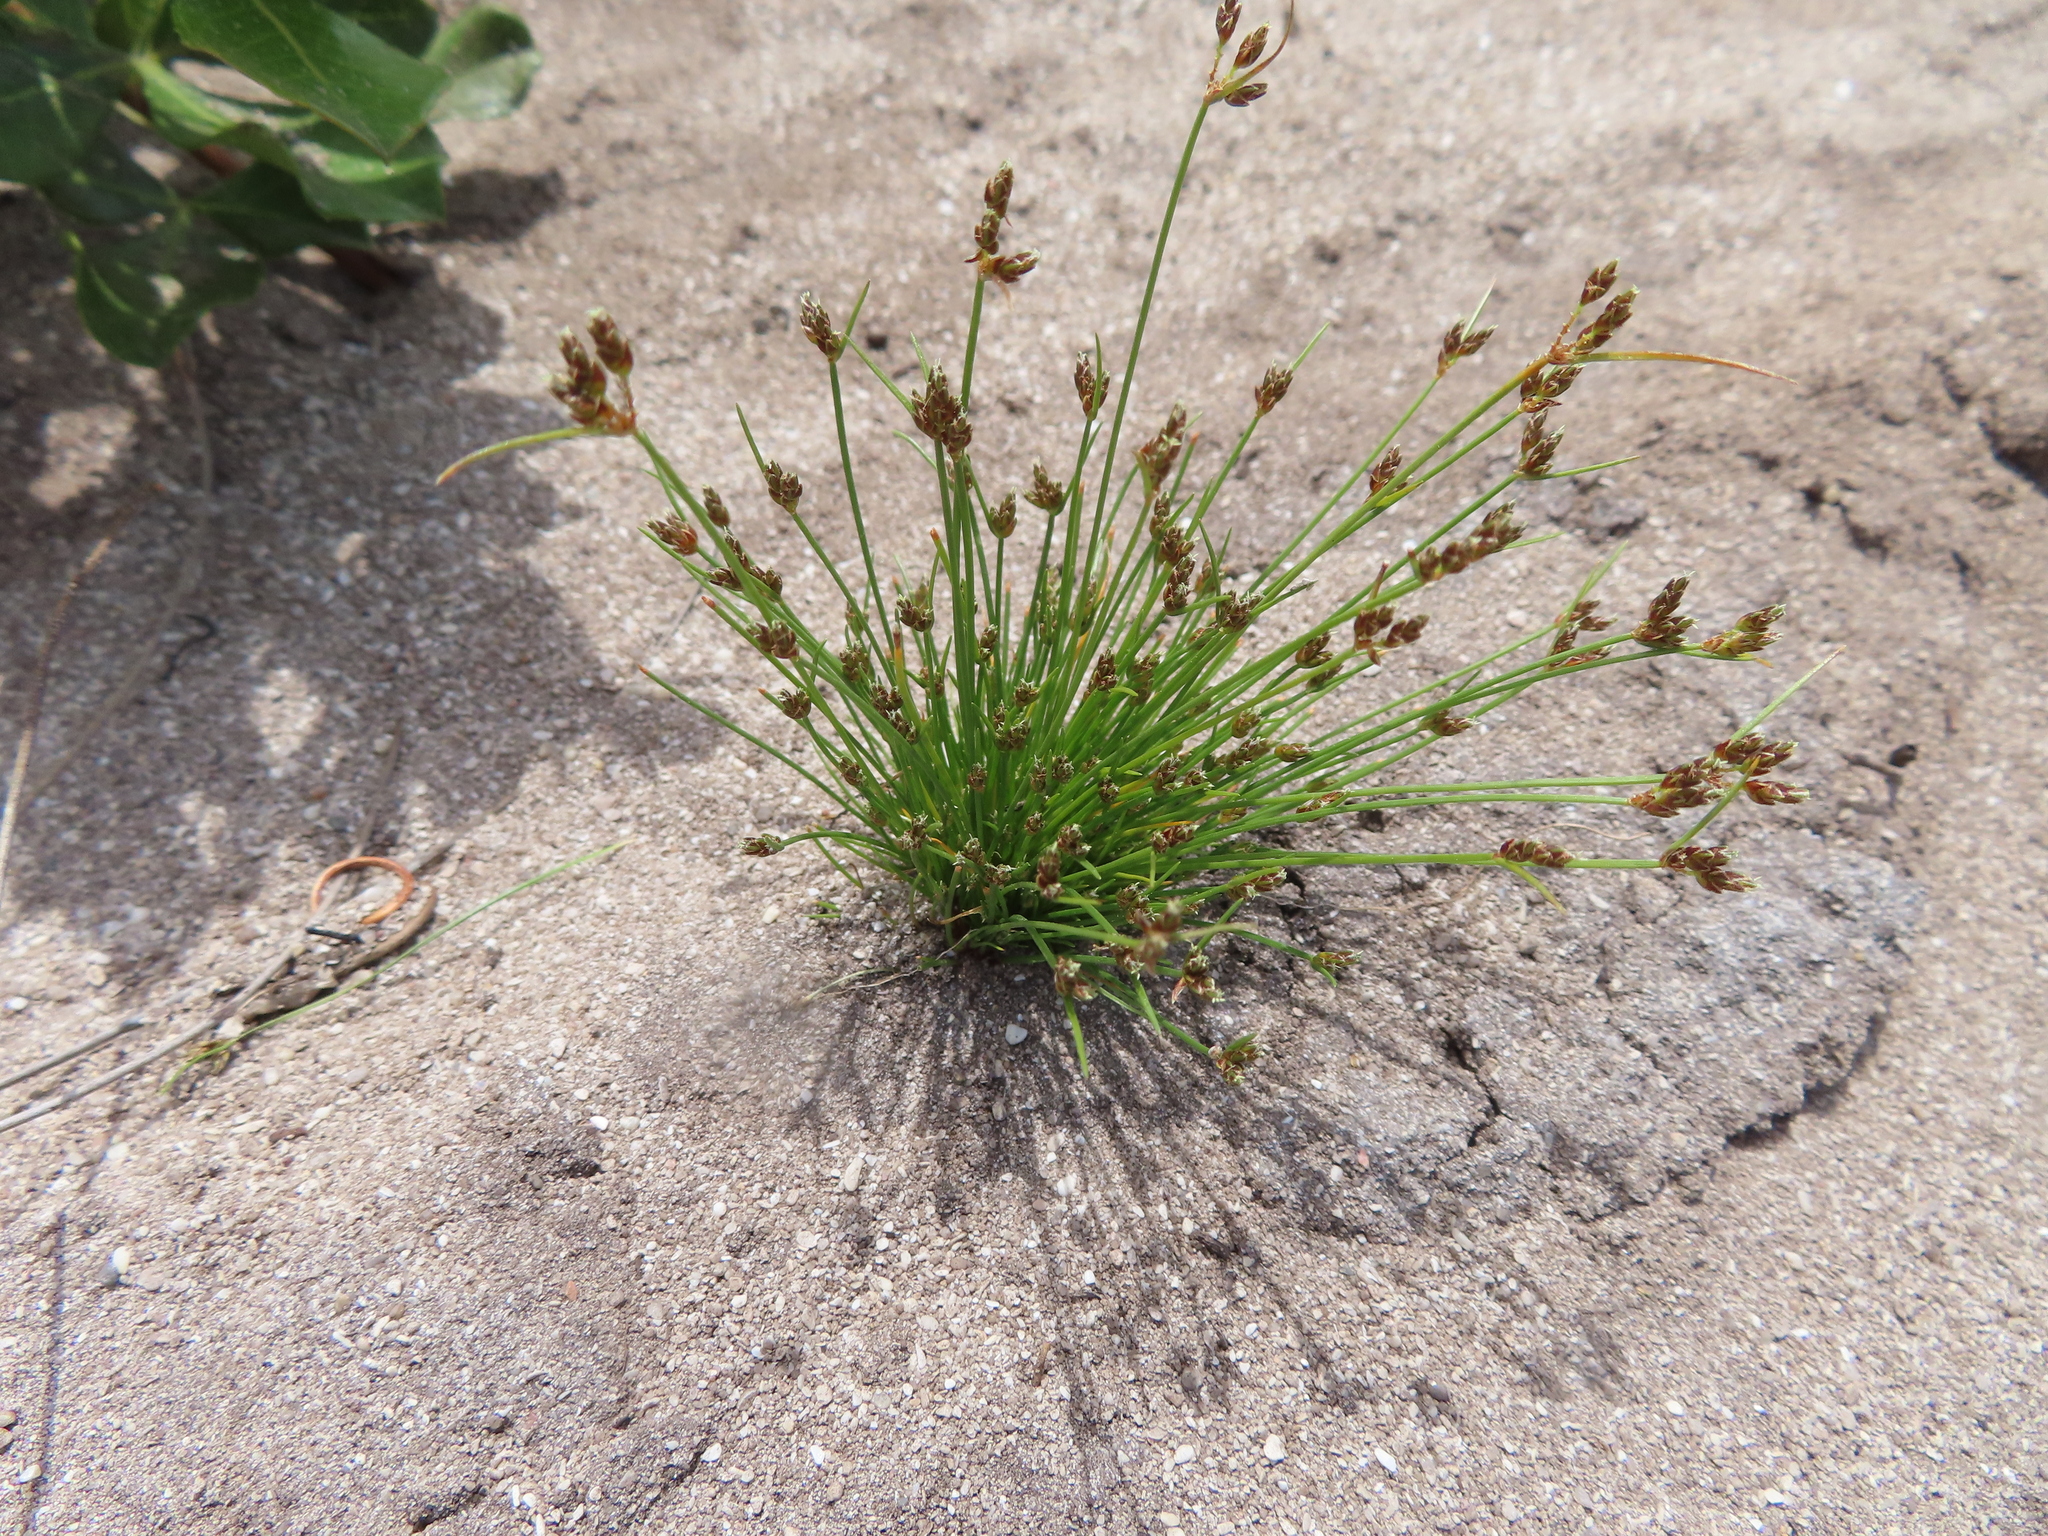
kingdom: Plantae
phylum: Tracheophyta
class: Liliopsida
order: Poales
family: Cyperaceae
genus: Isolepis
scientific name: Isolepis marginata
